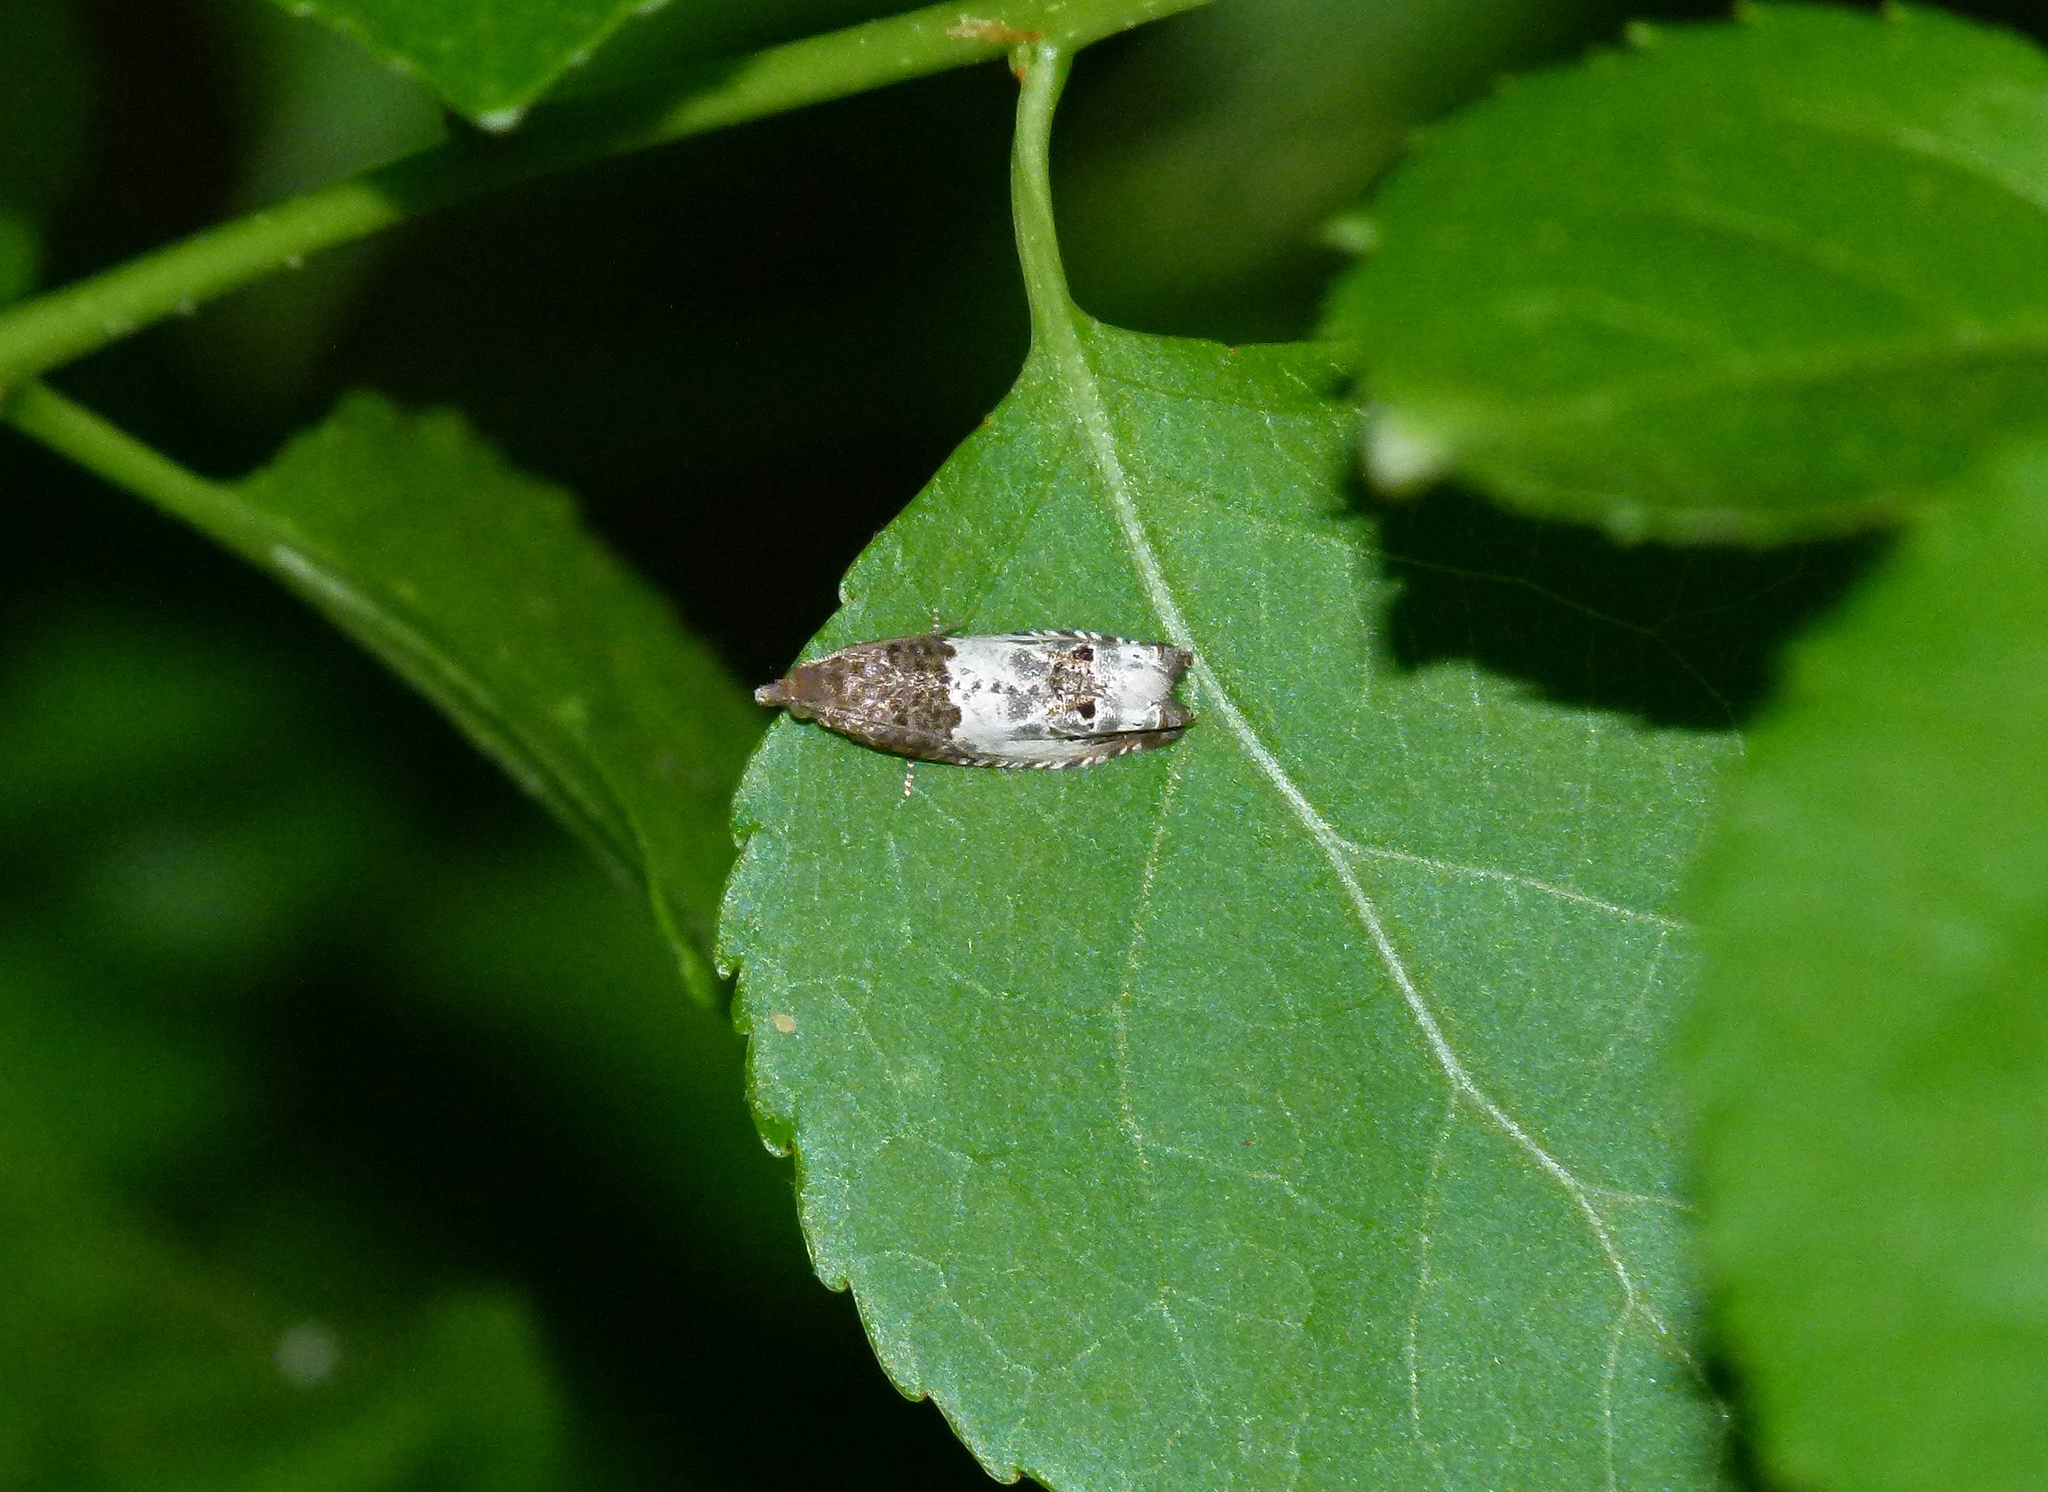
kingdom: Animalia
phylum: Arthropoda
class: Insecta
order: Lepidoptera
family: Tortricidae
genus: Notocelia
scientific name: Notocelia rosaecolana
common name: Common rose bell
